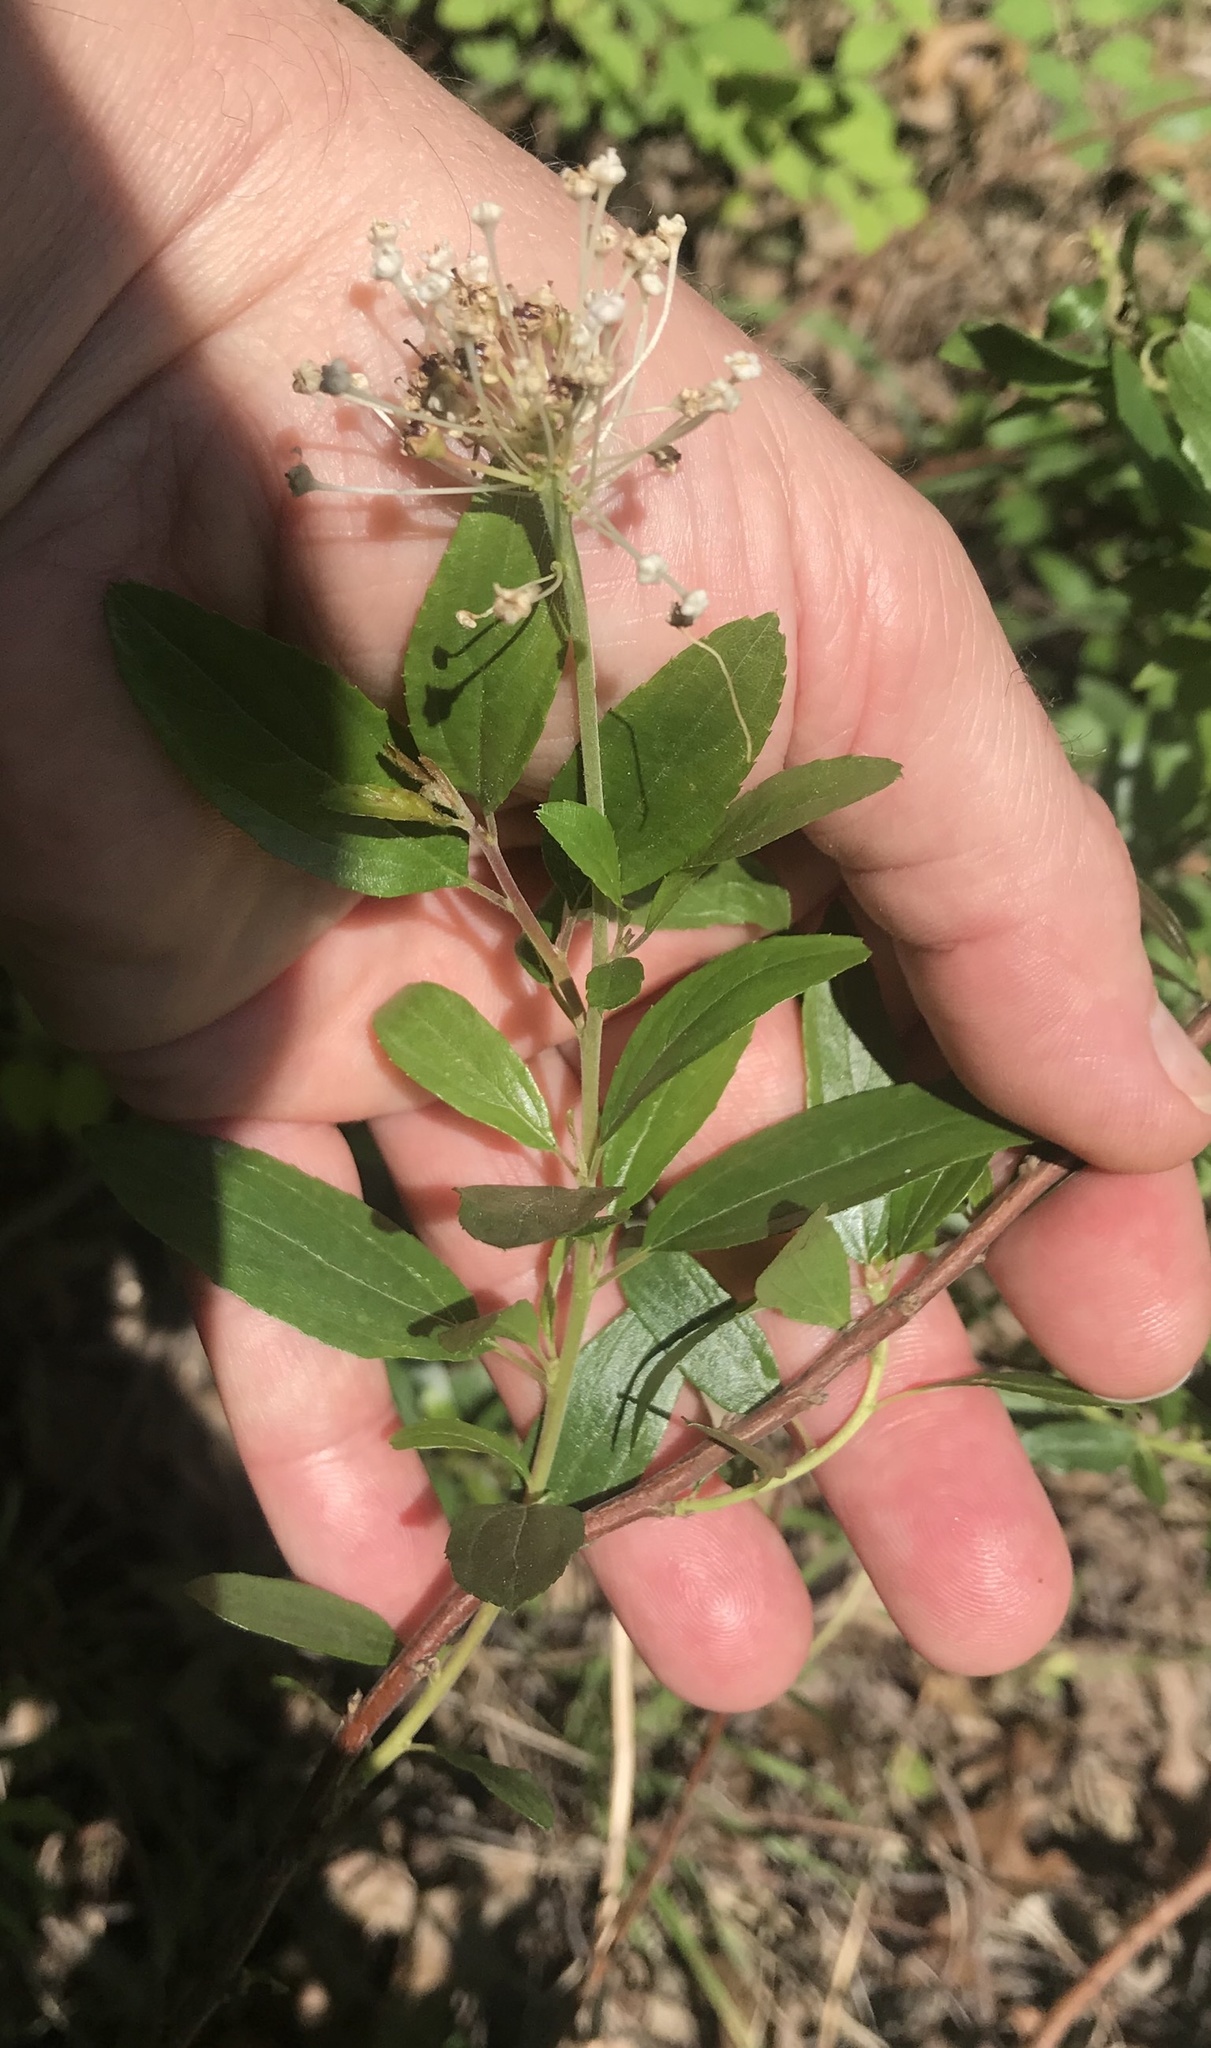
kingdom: Plantae
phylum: Tracheophyta
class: Magnoliopsida
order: Rosales
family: Rhamnaceae
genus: Ceanothus
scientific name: Ceanothus herbaceus
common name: Inland ceanothus
